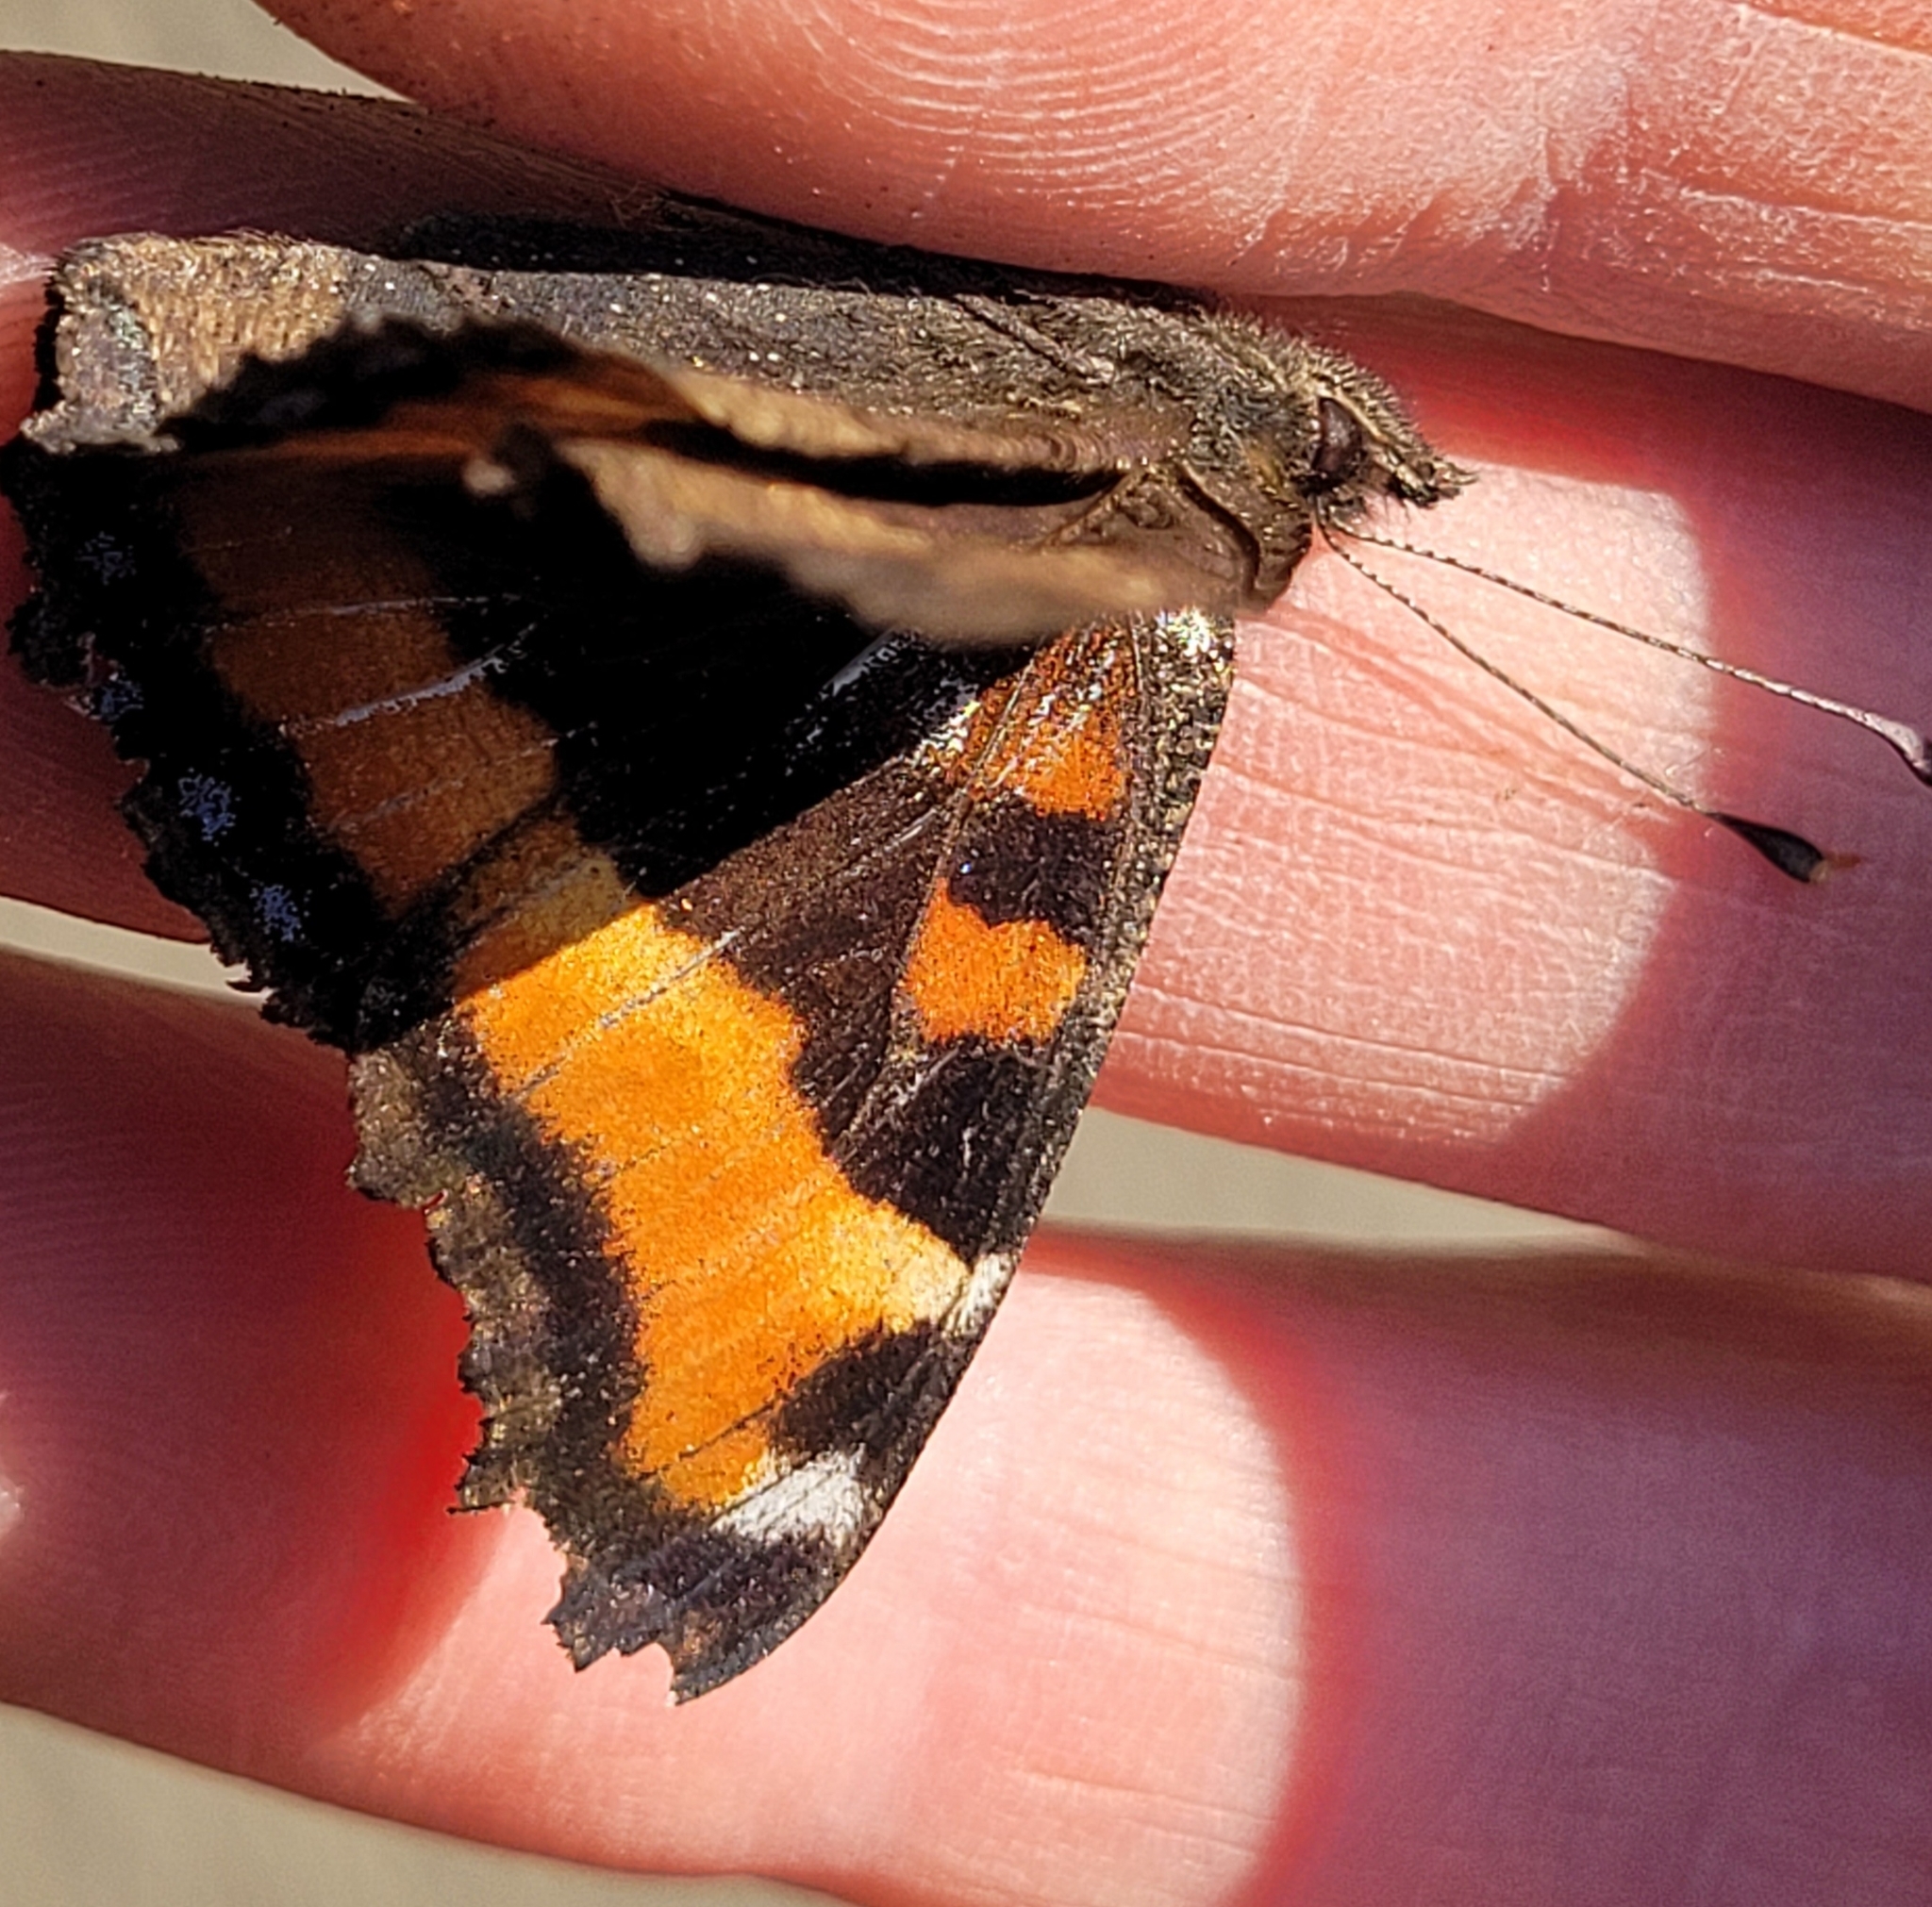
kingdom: Animalia
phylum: Arthropoda
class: Insecta
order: Lepidoptera
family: Nymphalidae
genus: Aglais
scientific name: Aglais milberti
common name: Milbert's tortoiseshell
